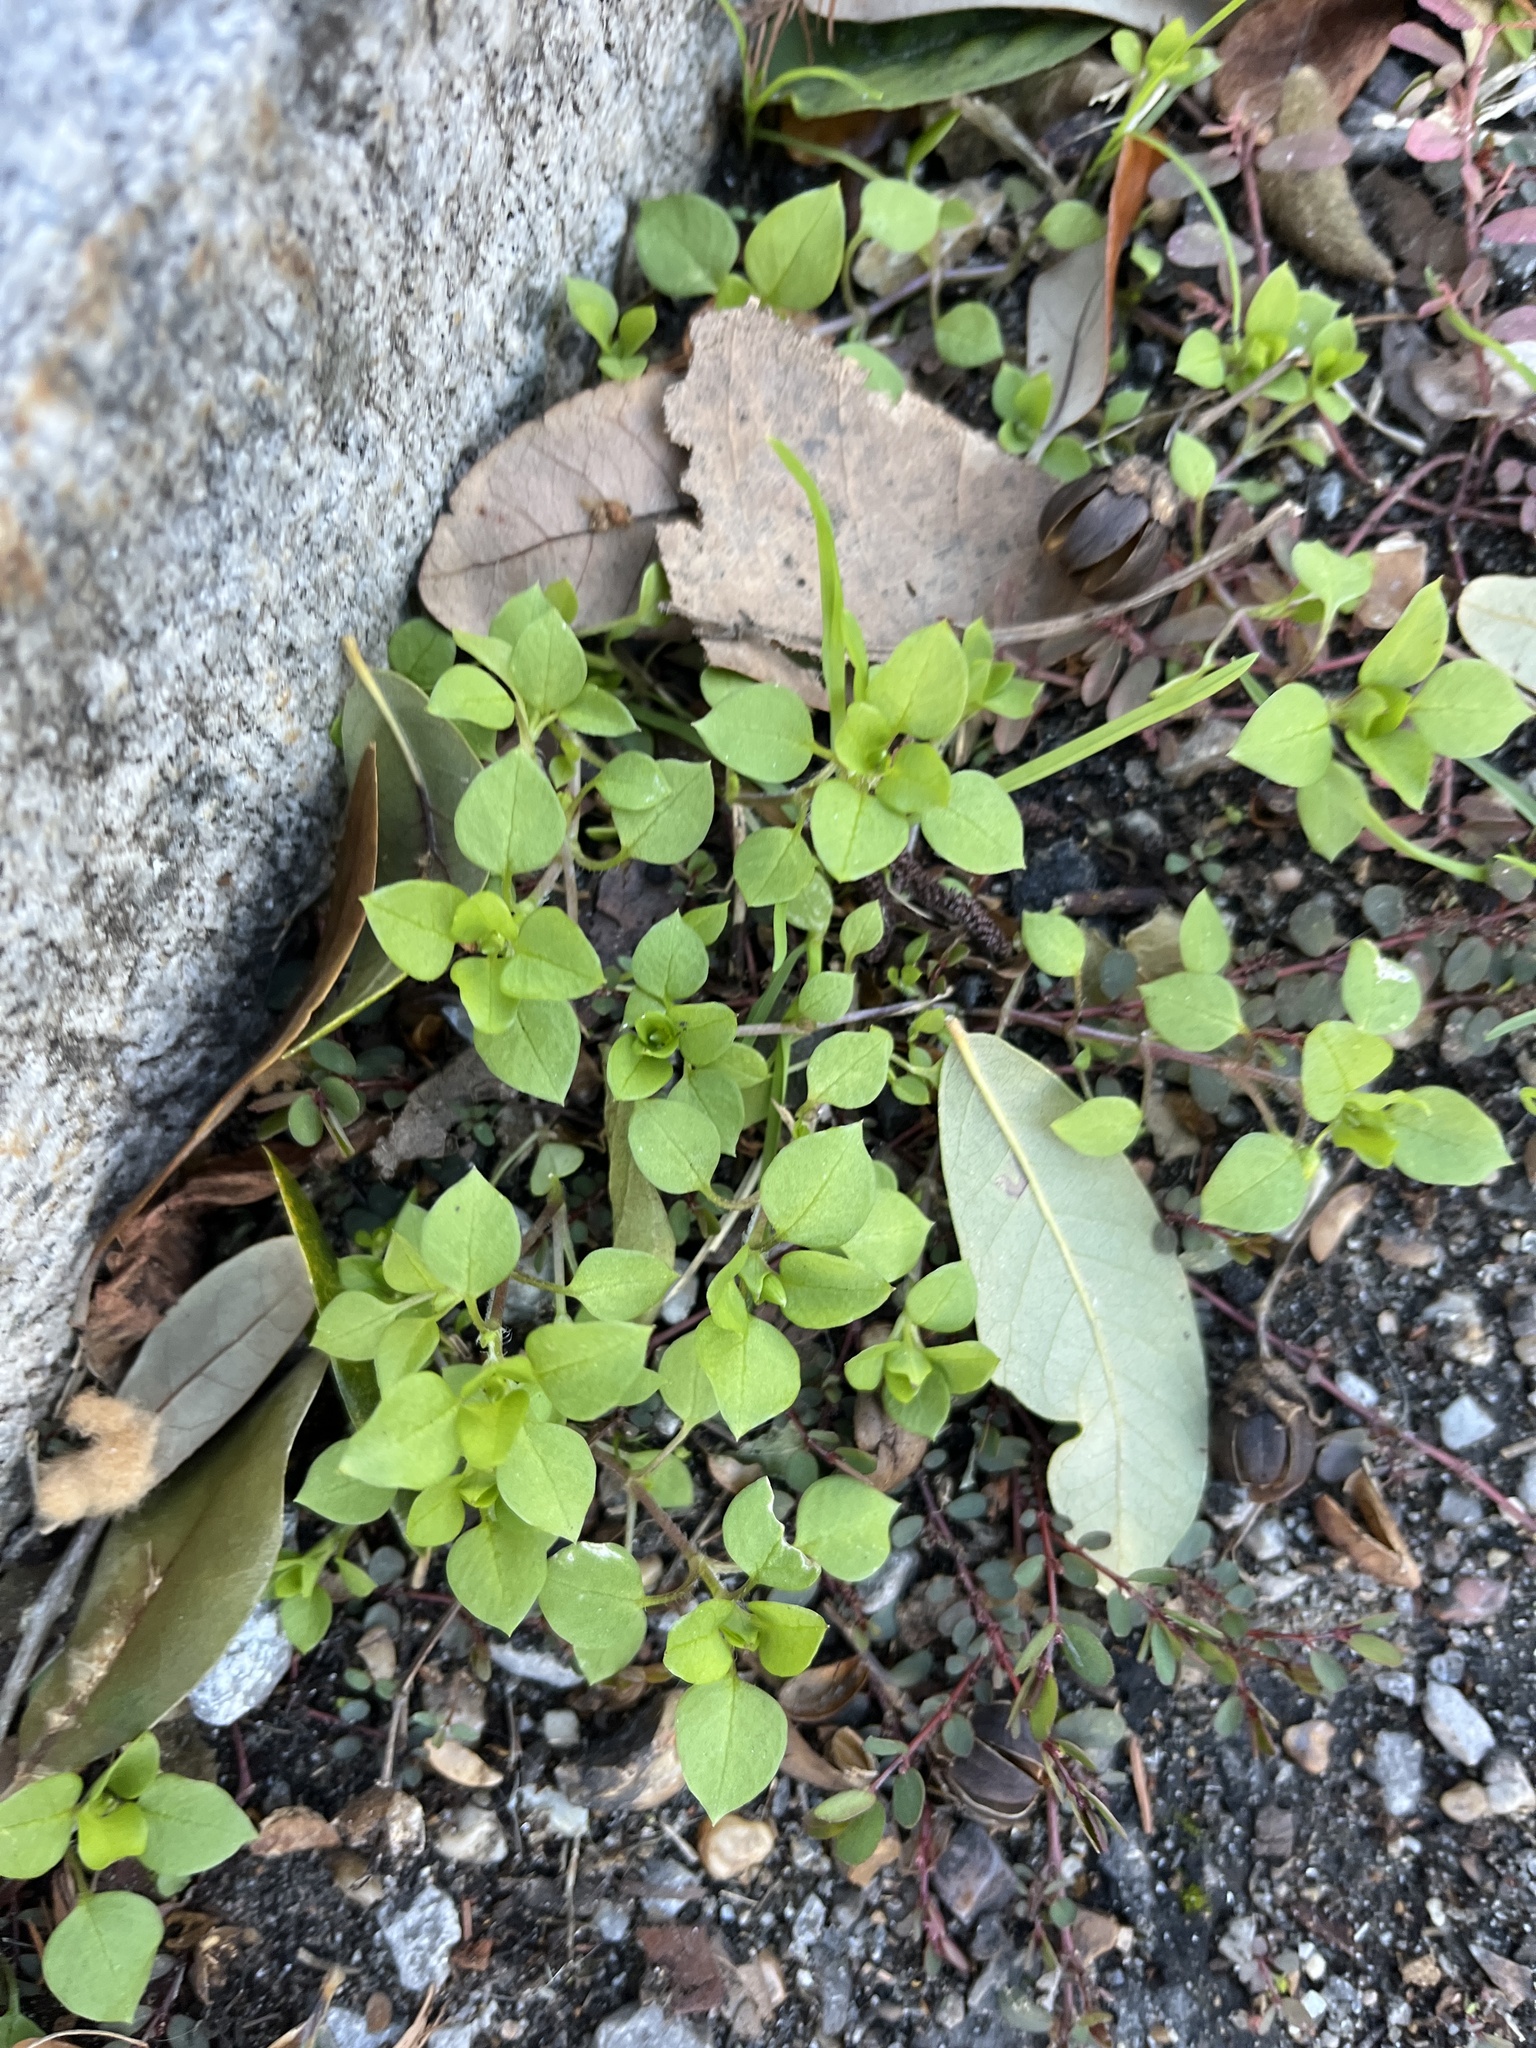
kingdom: Plantae
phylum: Tracheophyta
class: Magnoliopsida
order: Caryophyllales
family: Caryophyllaceae
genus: Stellaria
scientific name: Stellaria media
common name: Common chickweed
